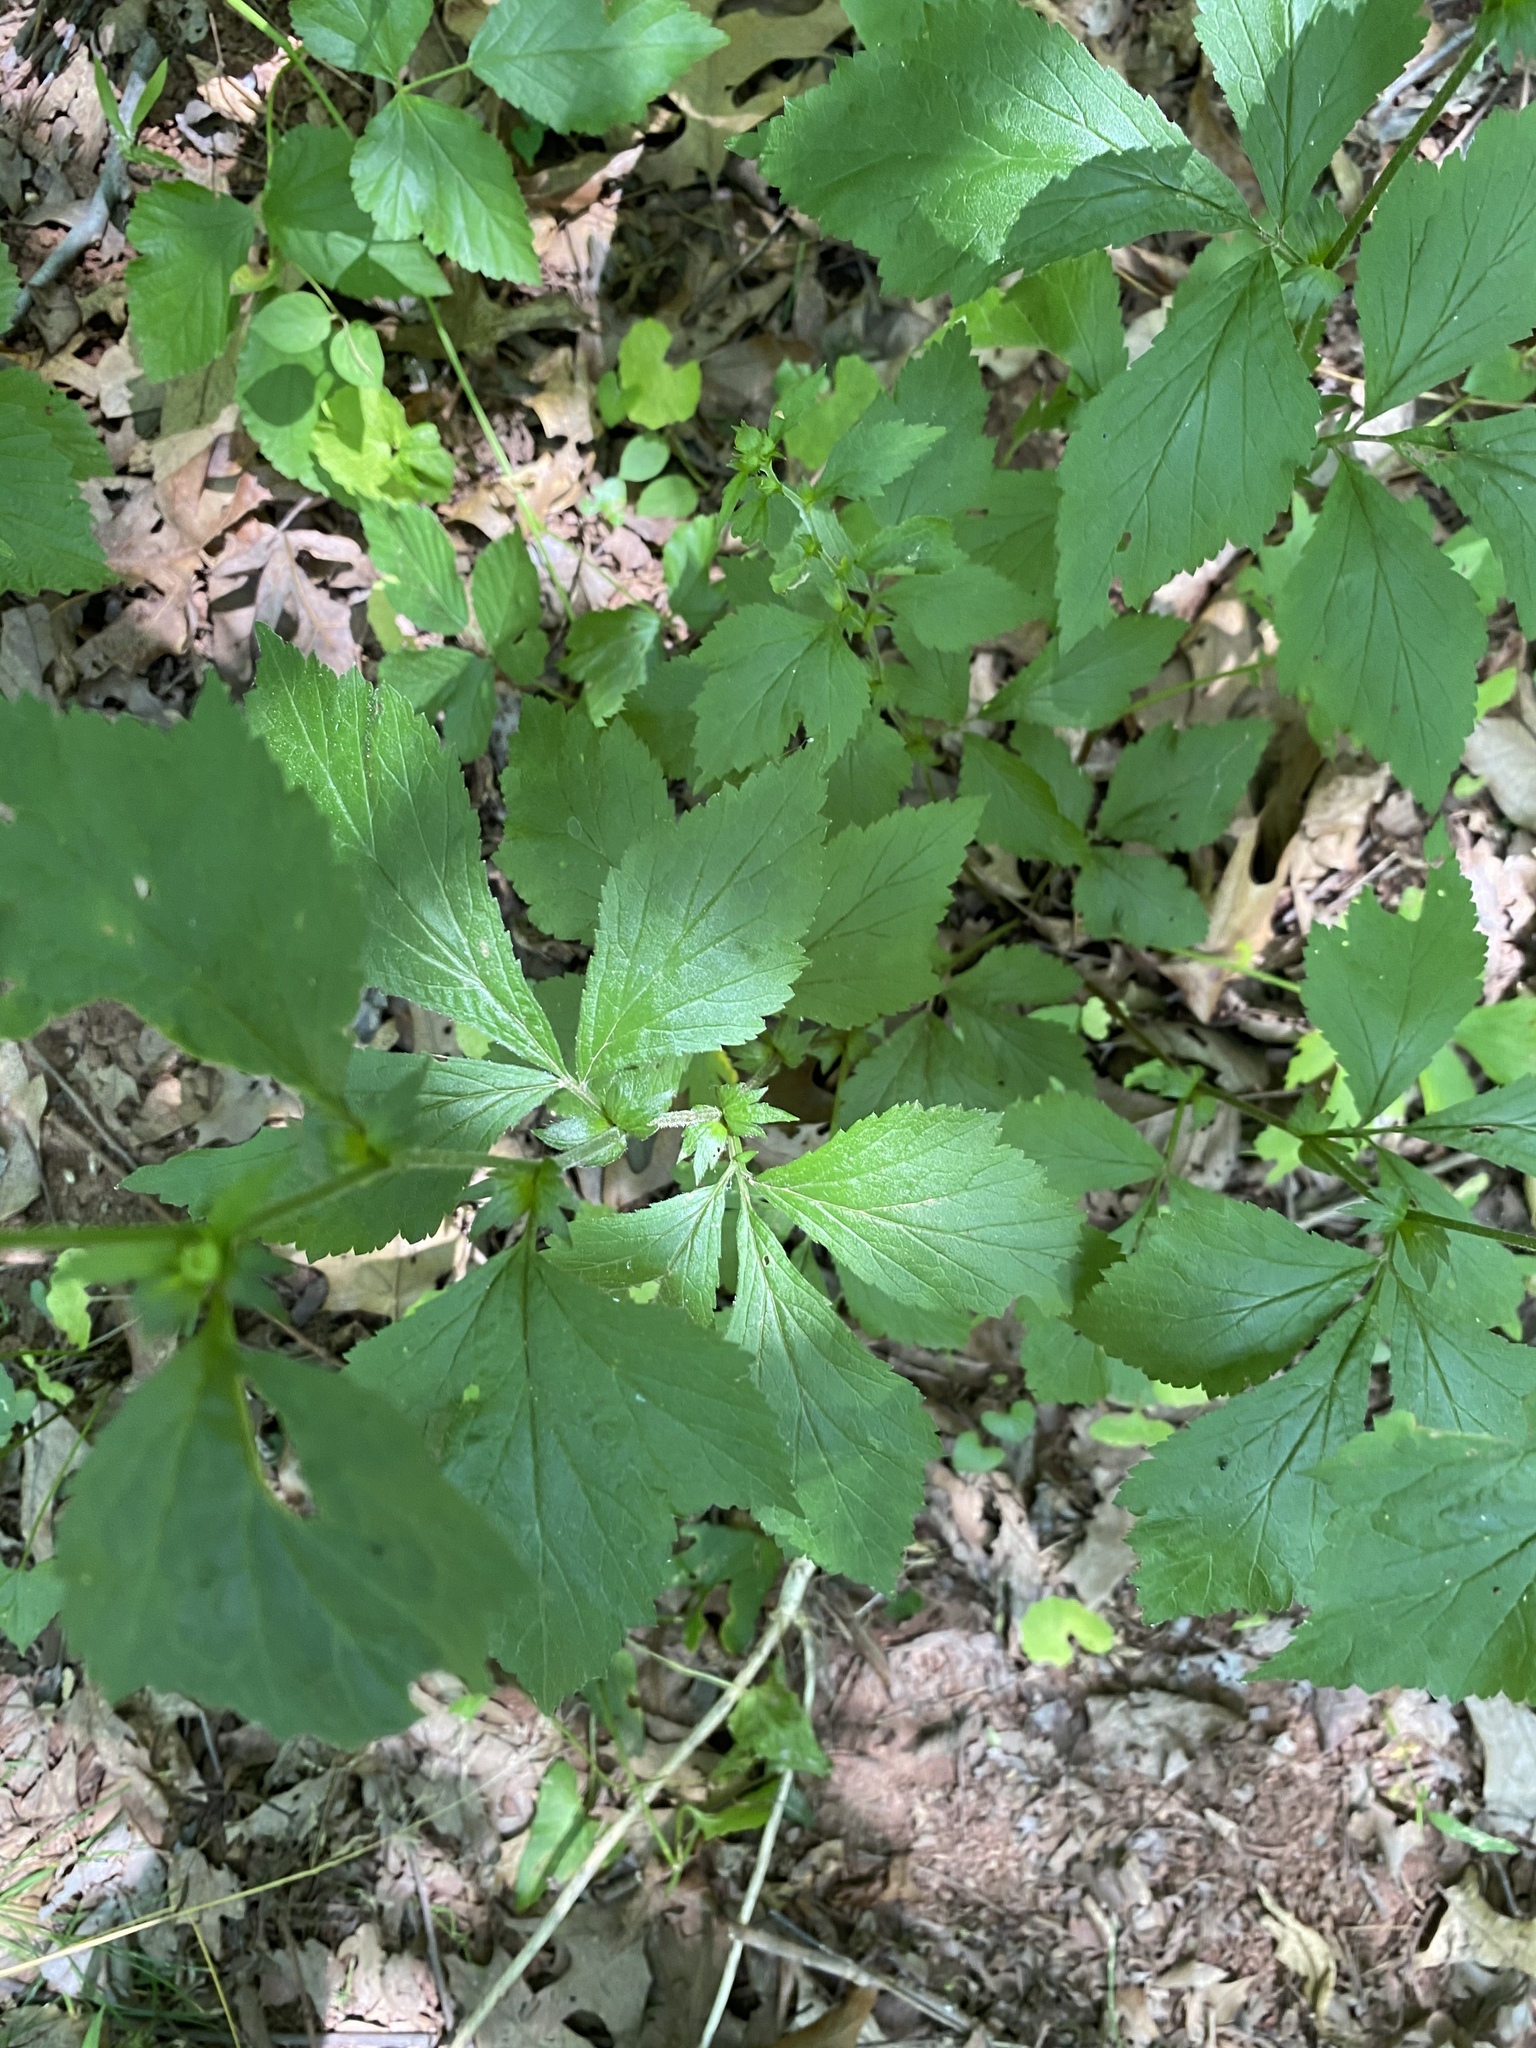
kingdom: Plantae
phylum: Tracheophyta
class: Magnoliopsida
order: Rosales
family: Rosaceae
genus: Geum
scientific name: Geum canadense
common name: White avens
